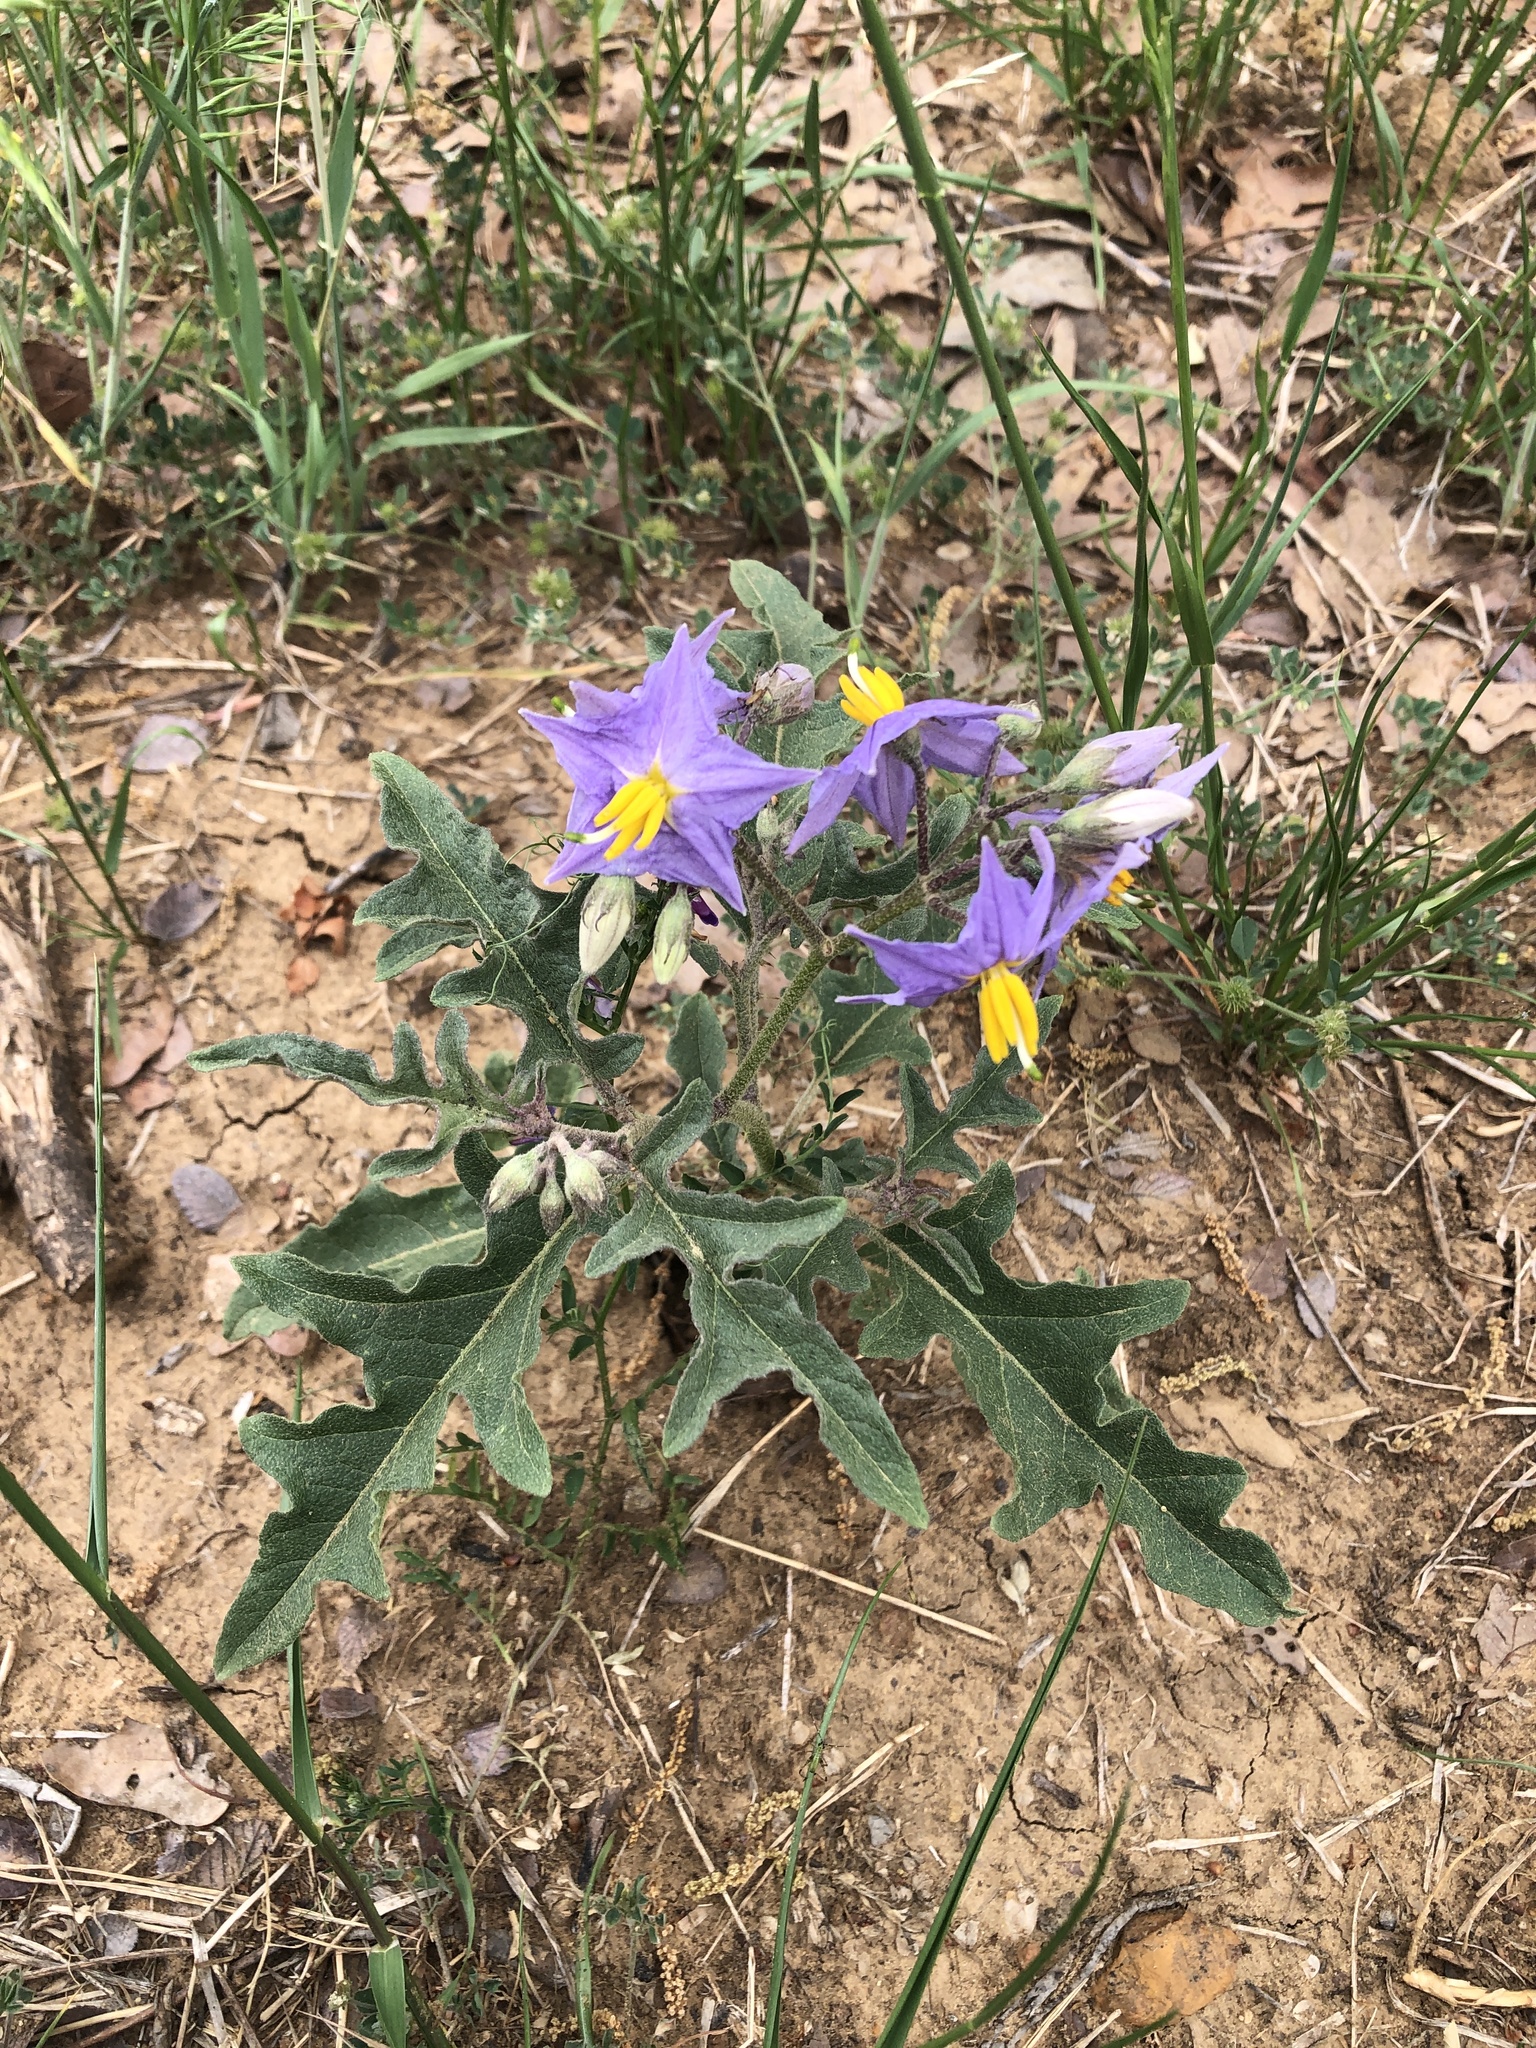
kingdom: Plantae
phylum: Tracheophyta
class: Magnoliopsida
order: Solanales
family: Solanaceae
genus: Solanum
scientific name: Solanum dimidiatum
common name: Carolina horse-nettle
